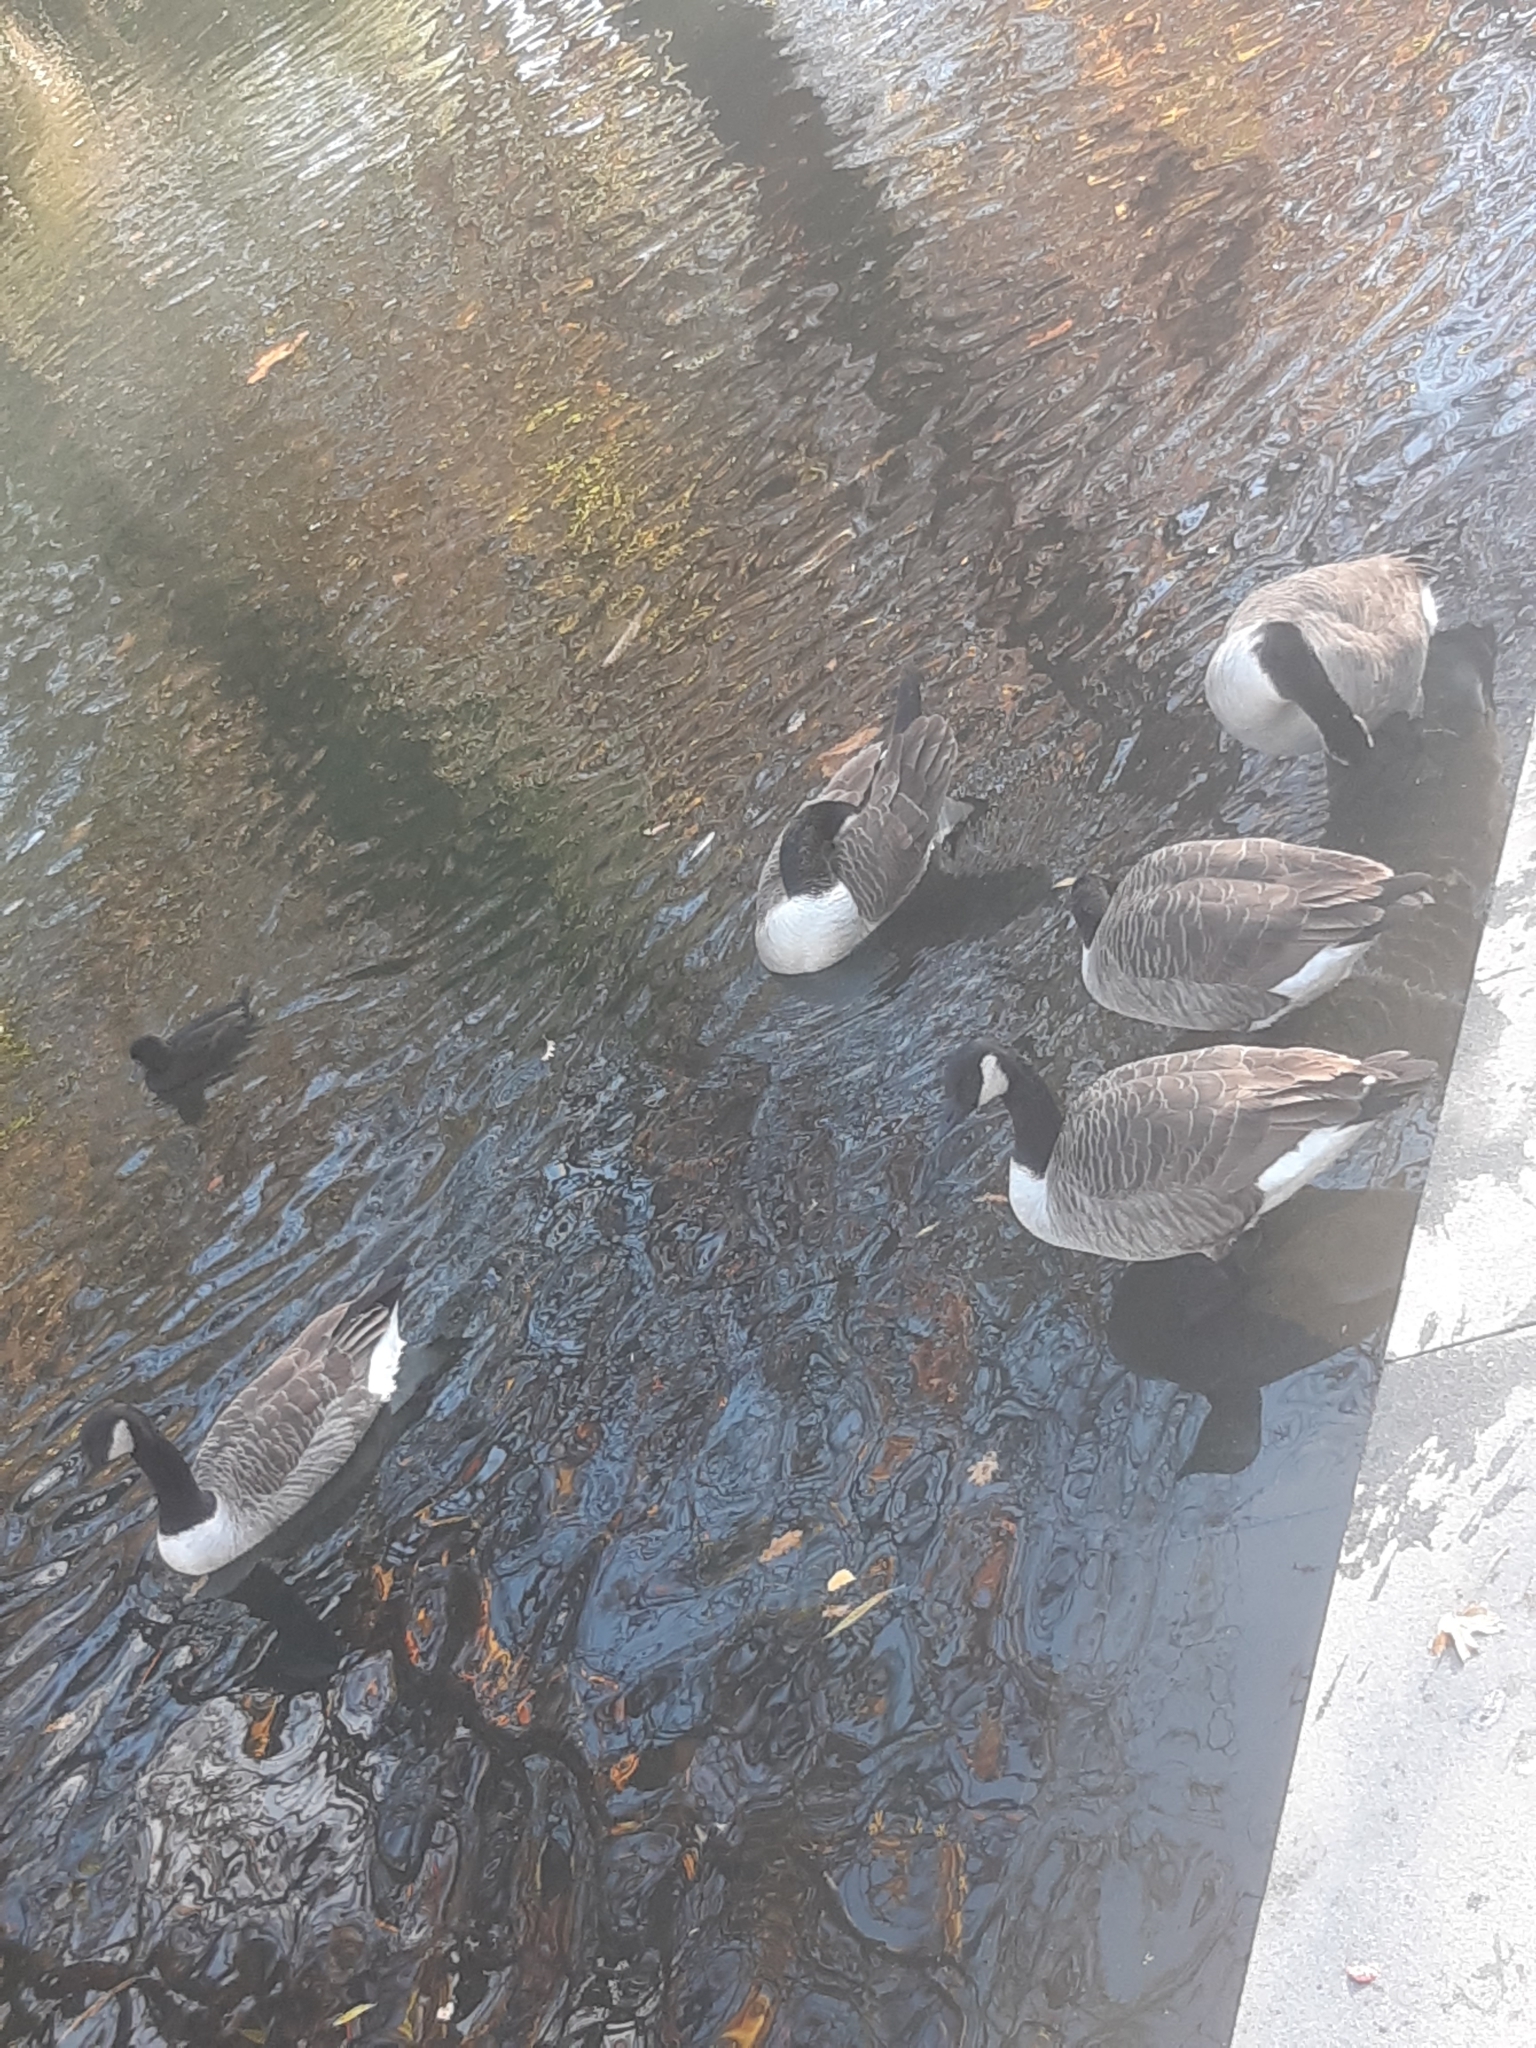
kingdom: Animalia
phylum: Chordata
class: Aves
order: Anseriformes
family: Anatidae
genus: Branta
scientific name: Branta canadensis
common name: Canada goose
